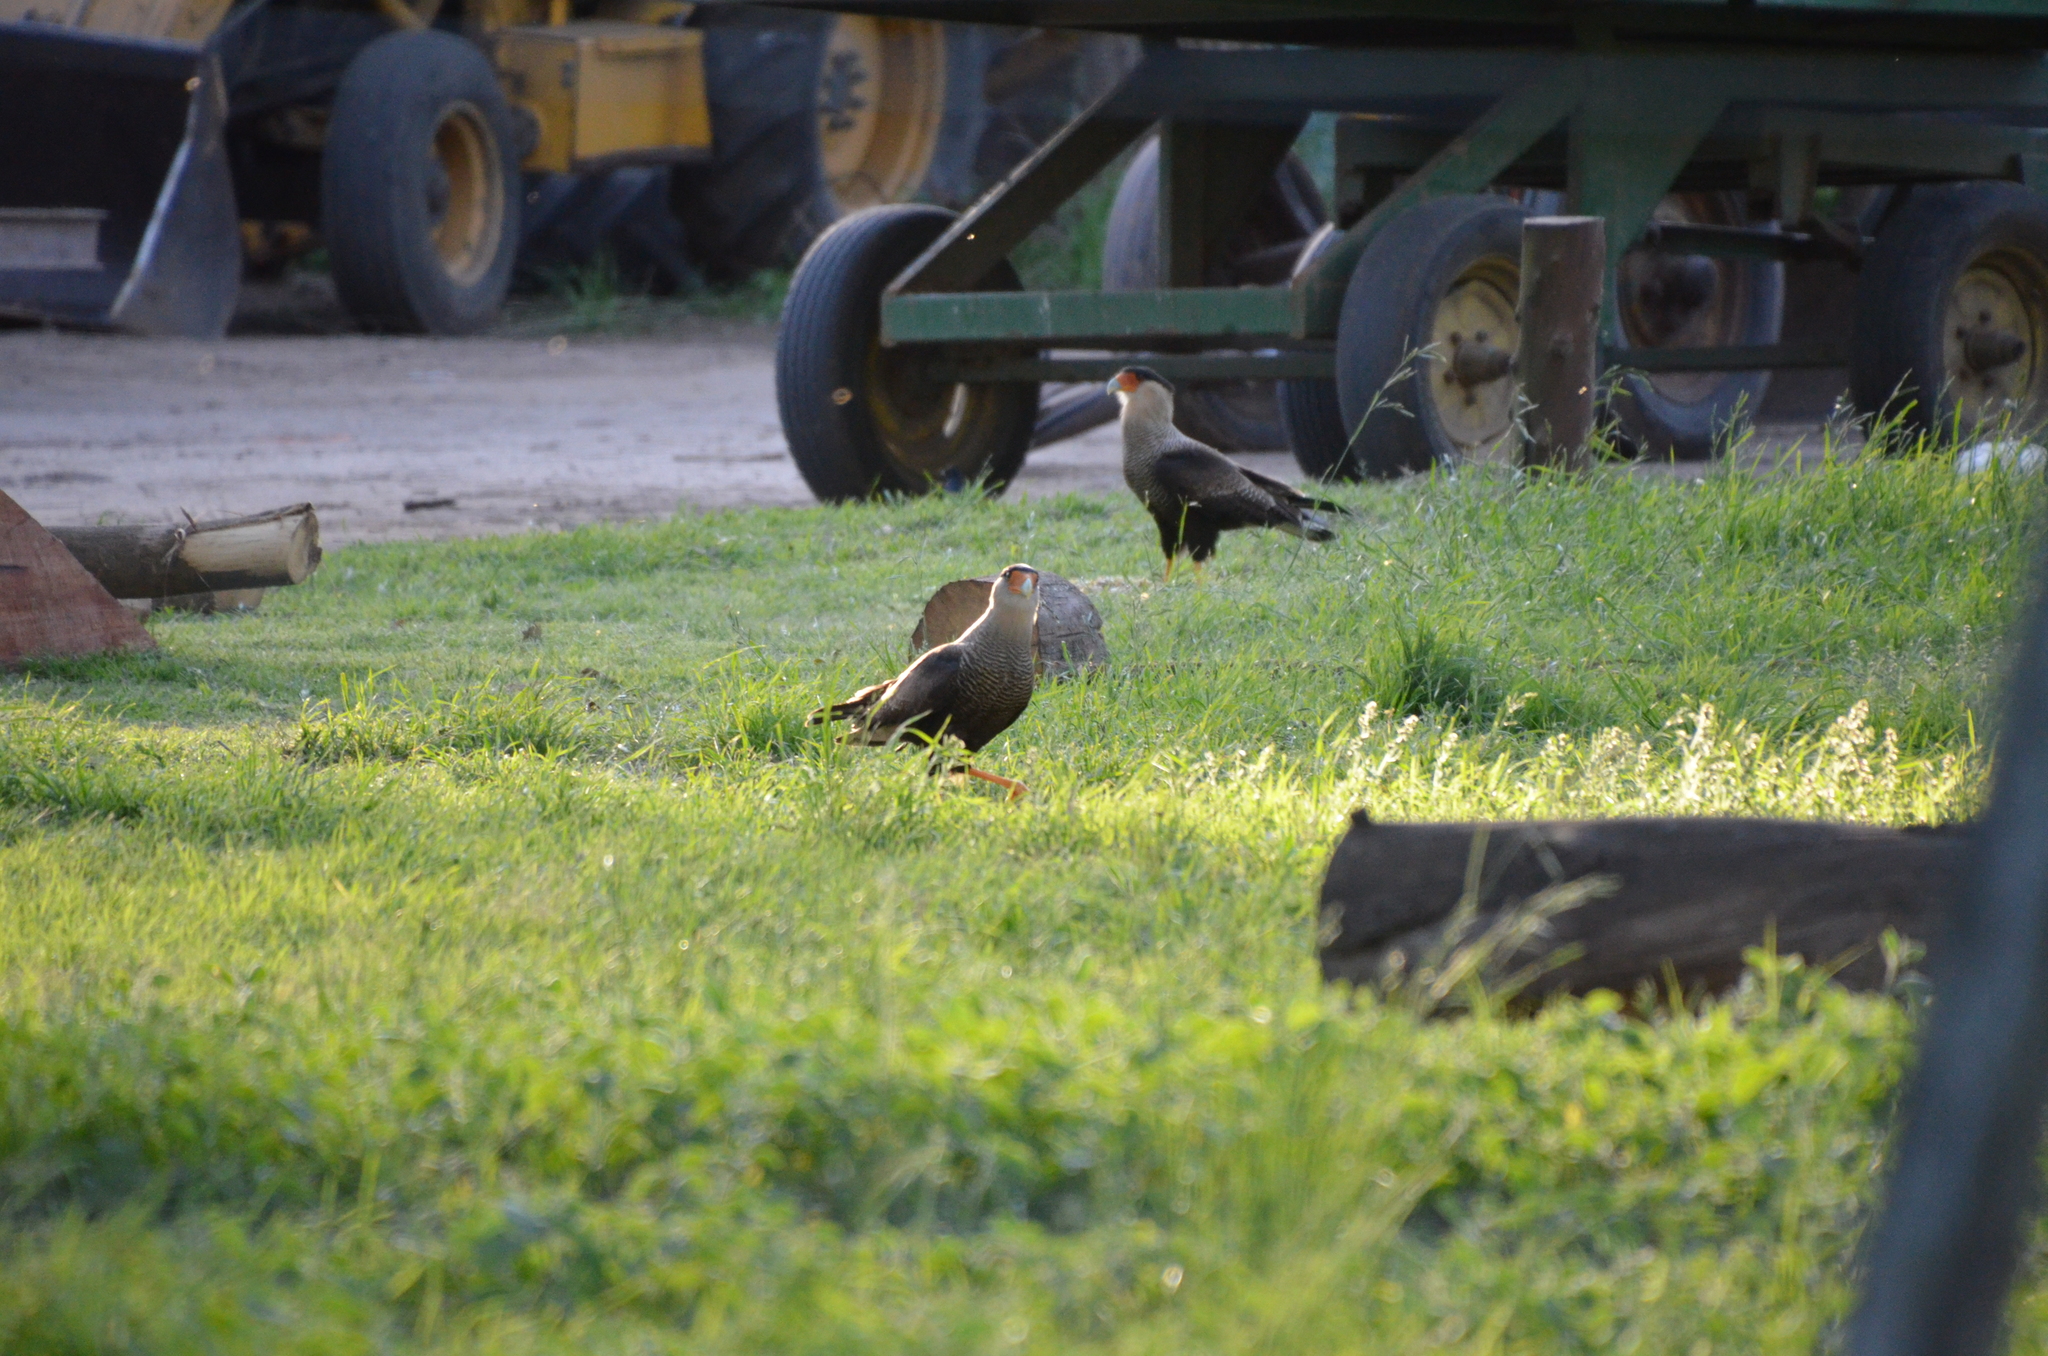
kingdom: Animalia
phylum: Chordata
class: Aves
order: Falconiformes
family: Falconidae
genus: Caracara
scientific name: Caracara plancus
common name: Southern caracara
